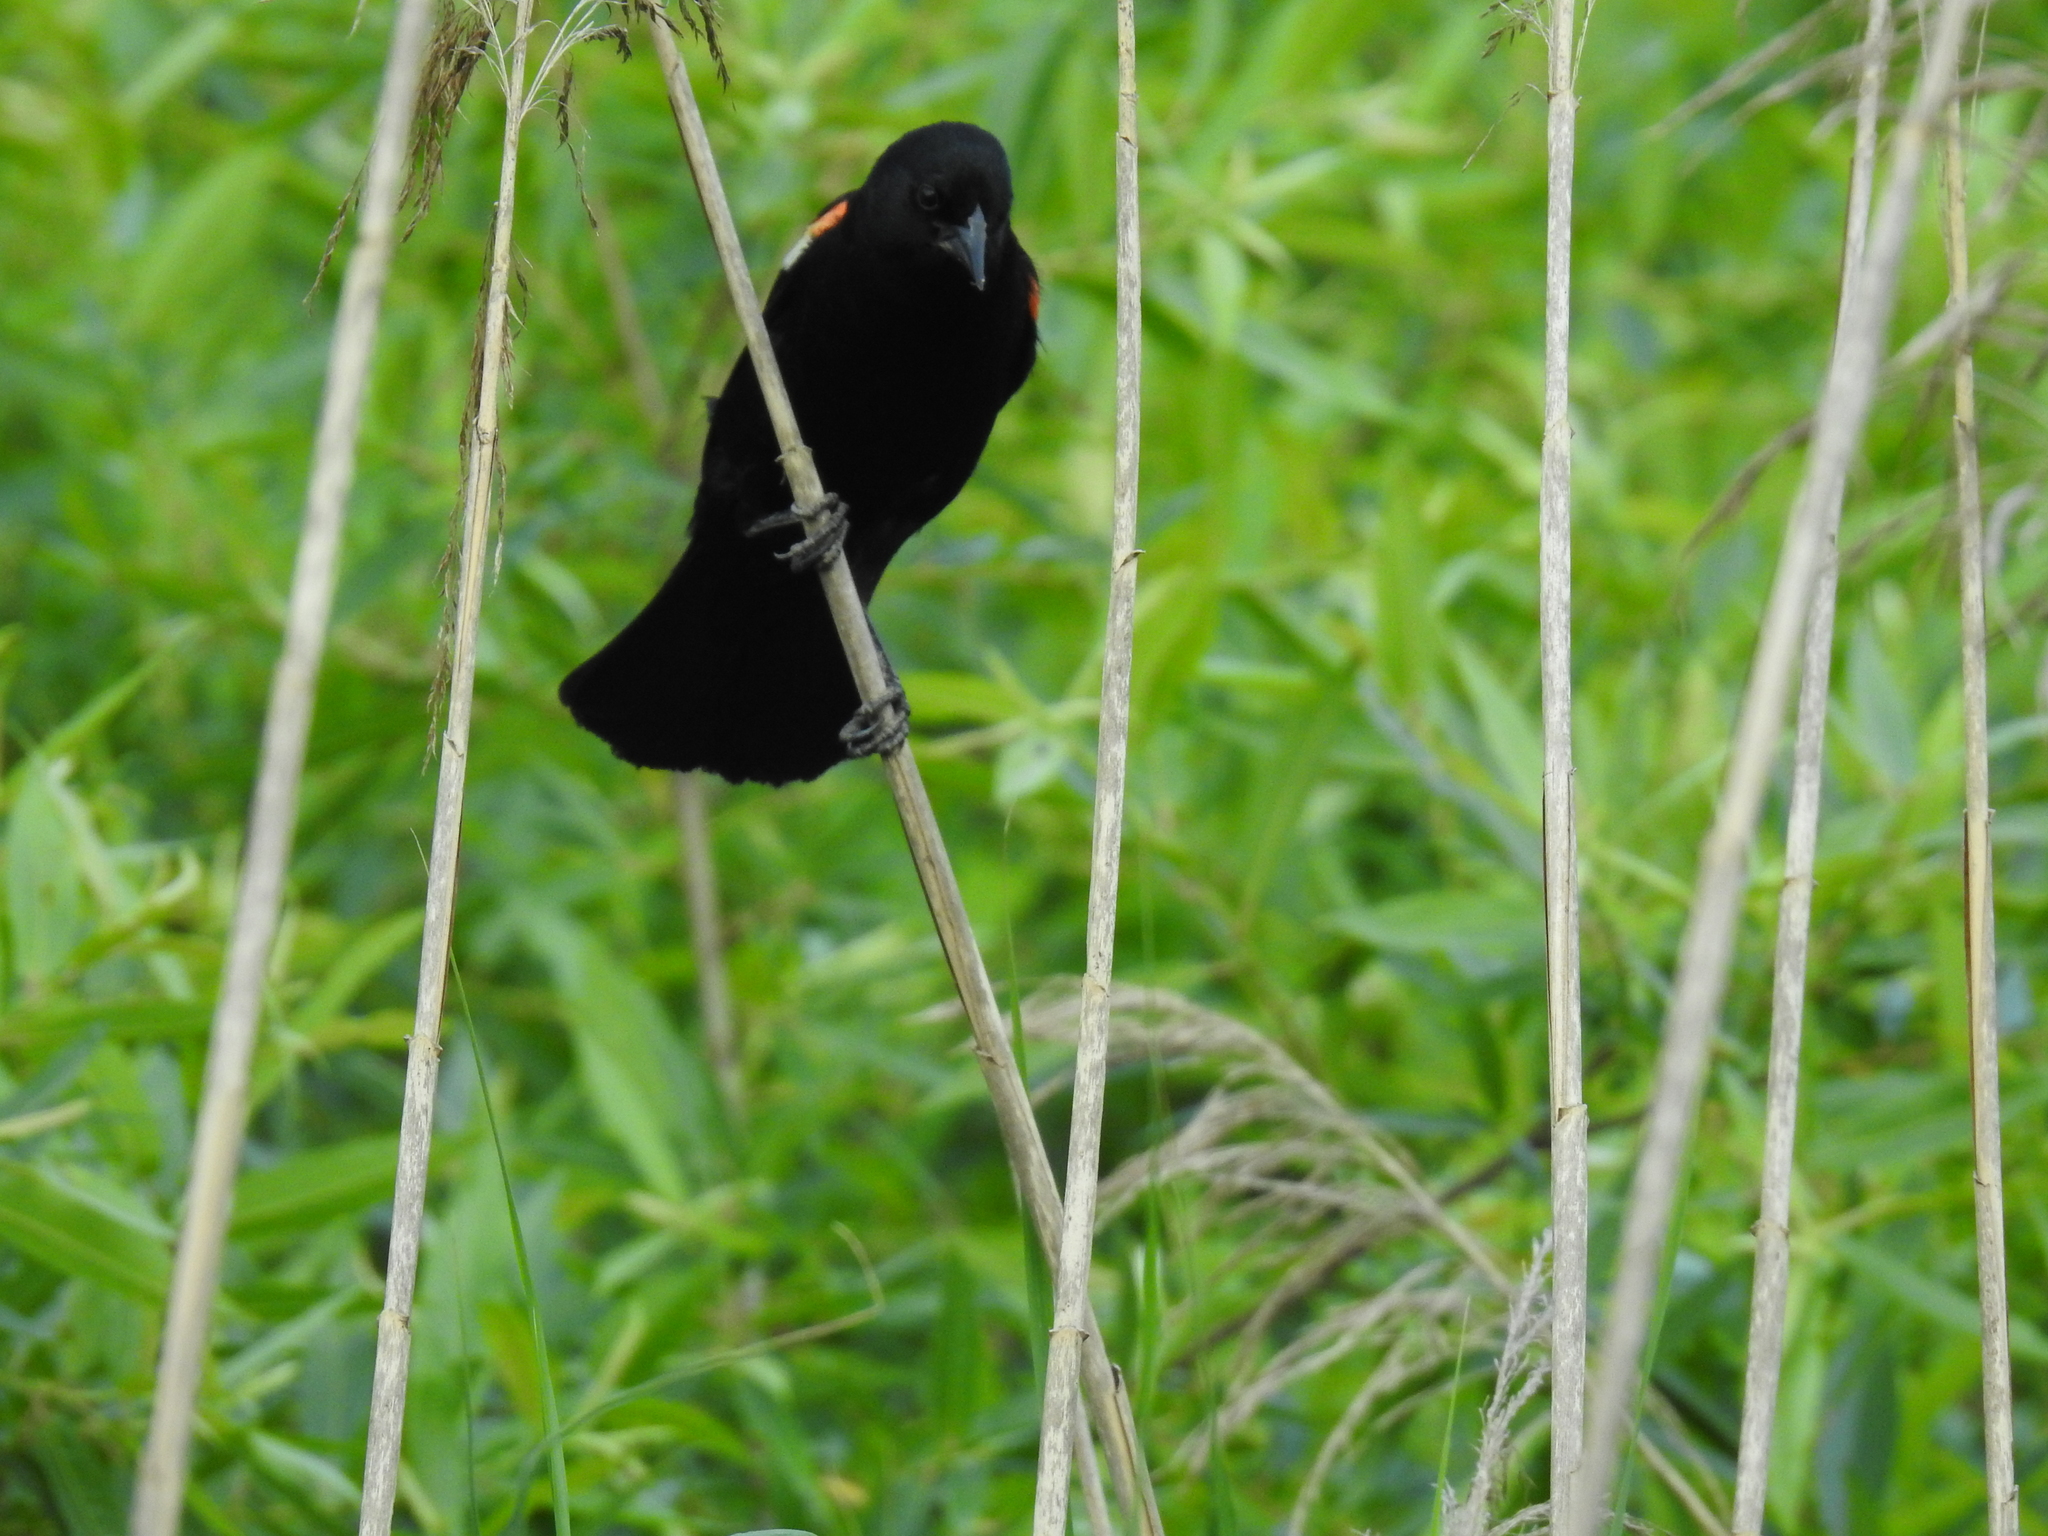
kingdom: Animalia
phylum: Chordata
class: Aves
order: Passeriformes
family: Icteridae
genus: Agelaius
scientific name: Agelaius phoeniceus
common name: Red-winged blackbird
